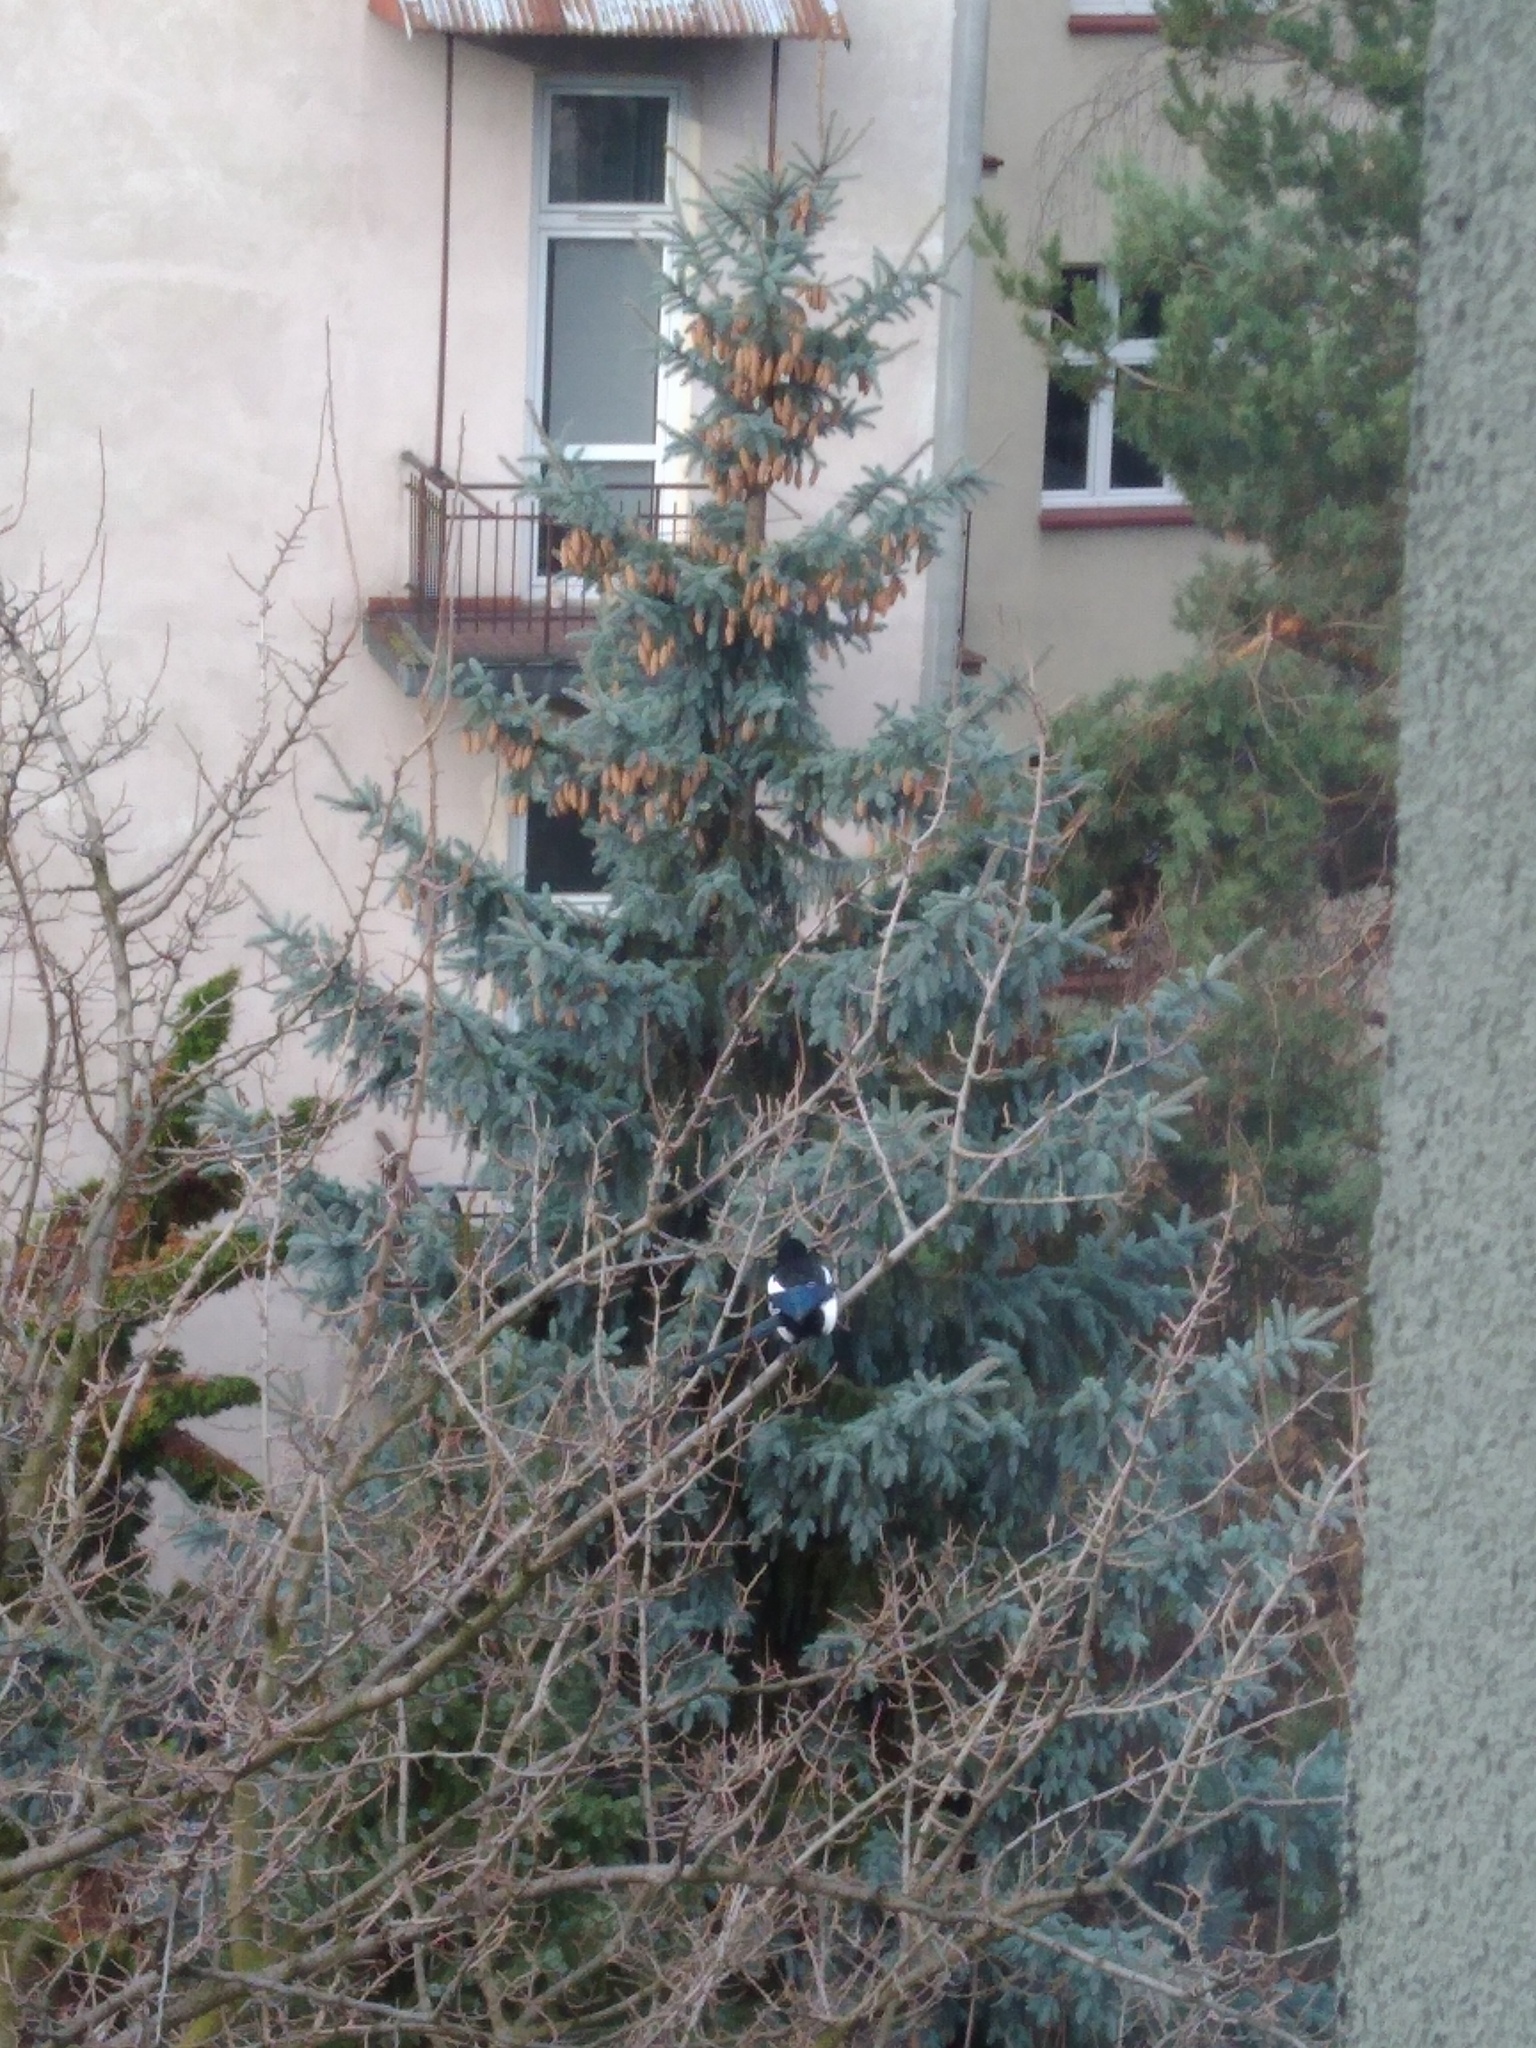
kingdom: Animalia
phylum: Chordata
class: Aves
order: Passeriformes
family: Corvidae
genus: Pica
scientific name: Pica pica
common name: Eurasian magpie
